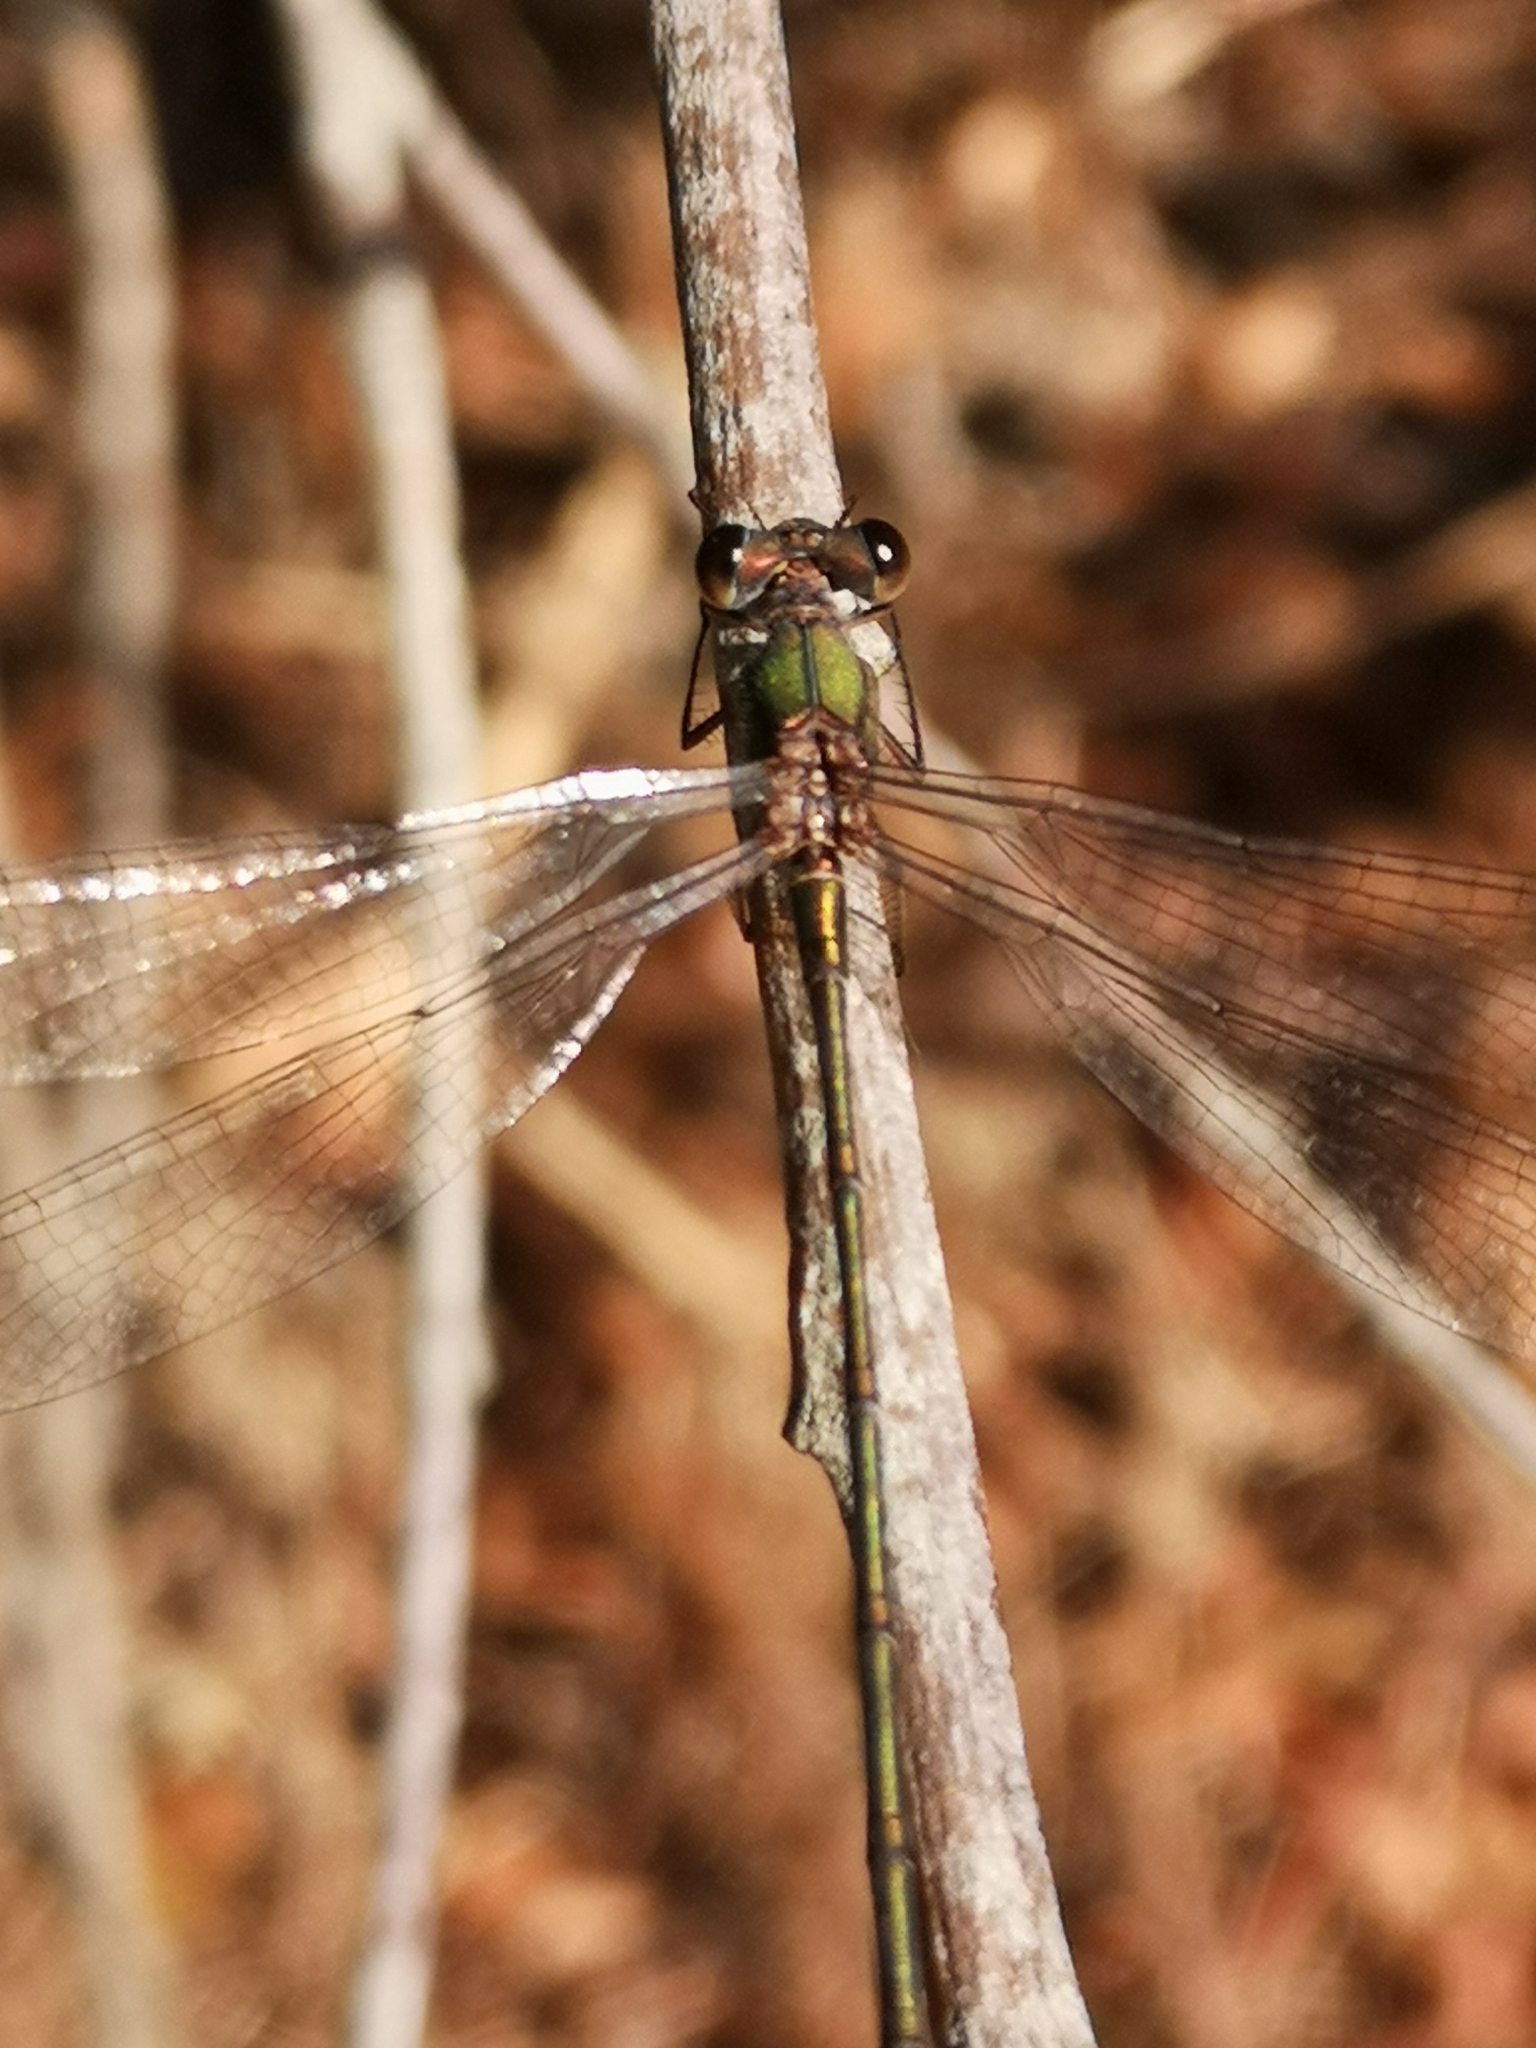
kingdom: Animalia
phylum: Arthropoda
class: Insecta
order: Odonata
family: Lestidae
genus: Chalcolestes
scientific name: Chalcolestes viridis
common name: Green emerald damselfly
